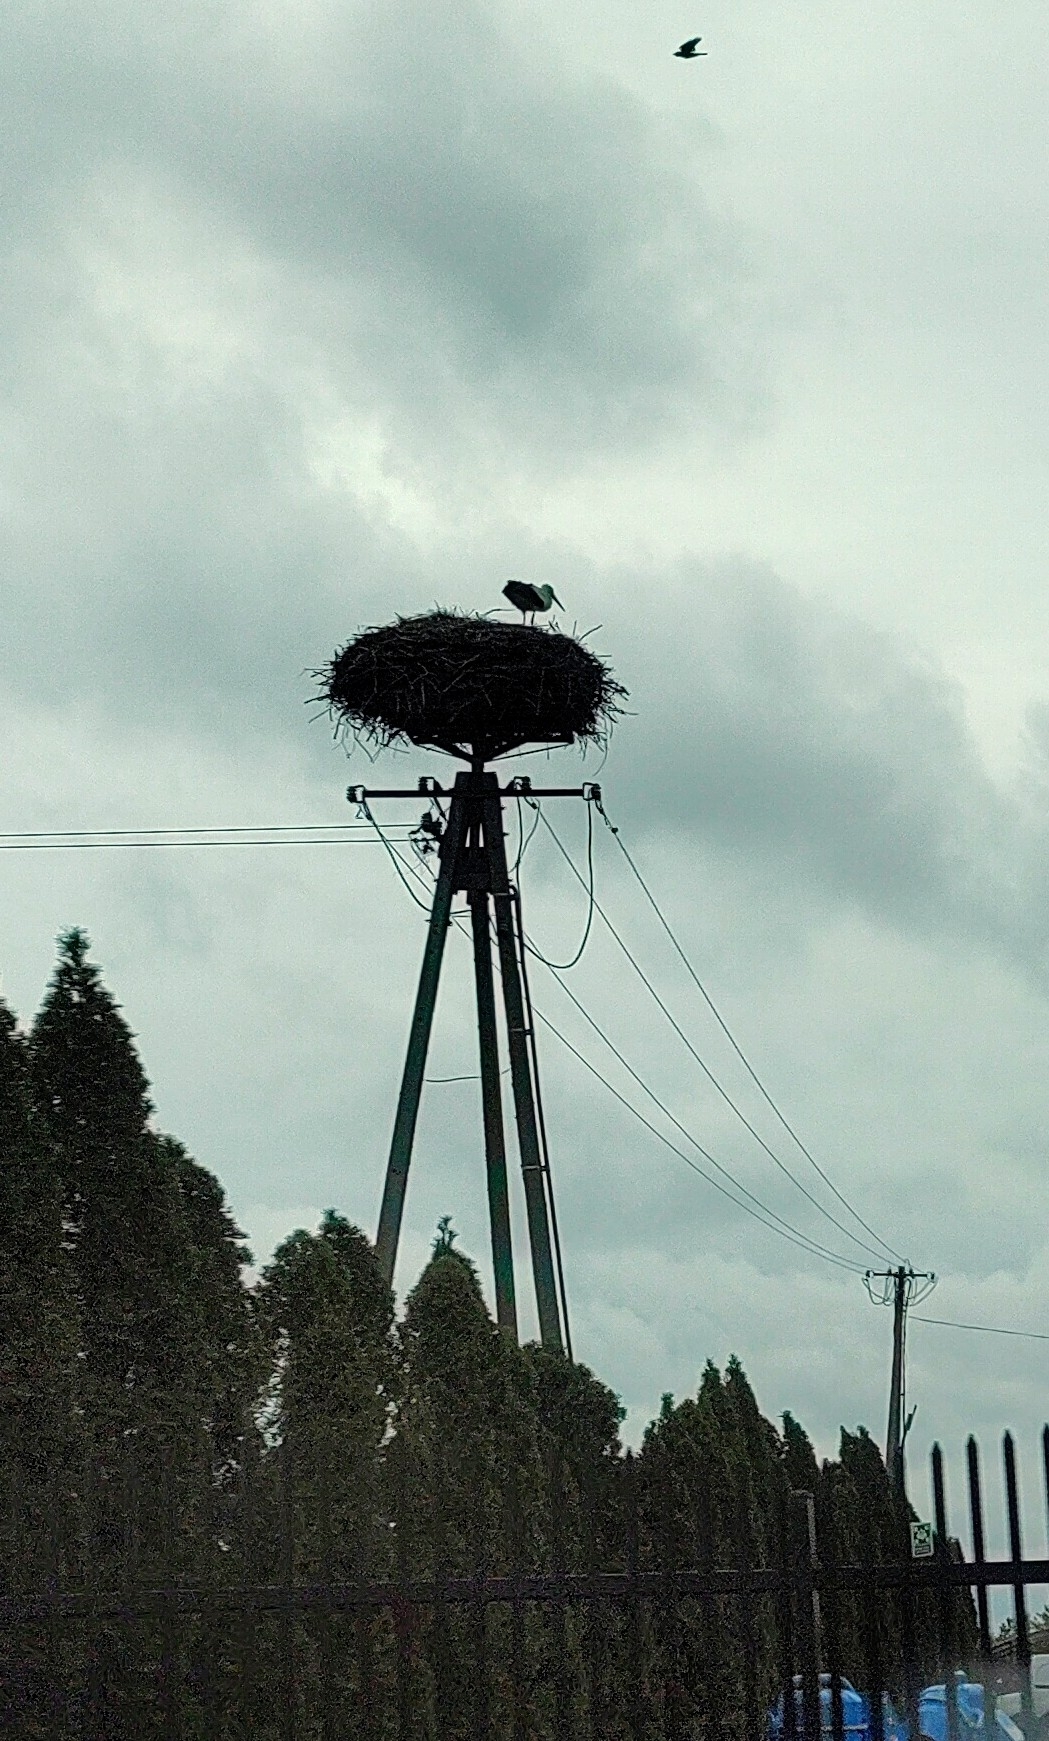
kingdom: Animalia
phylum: Chordata
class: Aves
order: Ciconiiformes
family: Ciconiidae
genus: Ciconia
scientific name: Ciconia ciconia
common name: White stork
